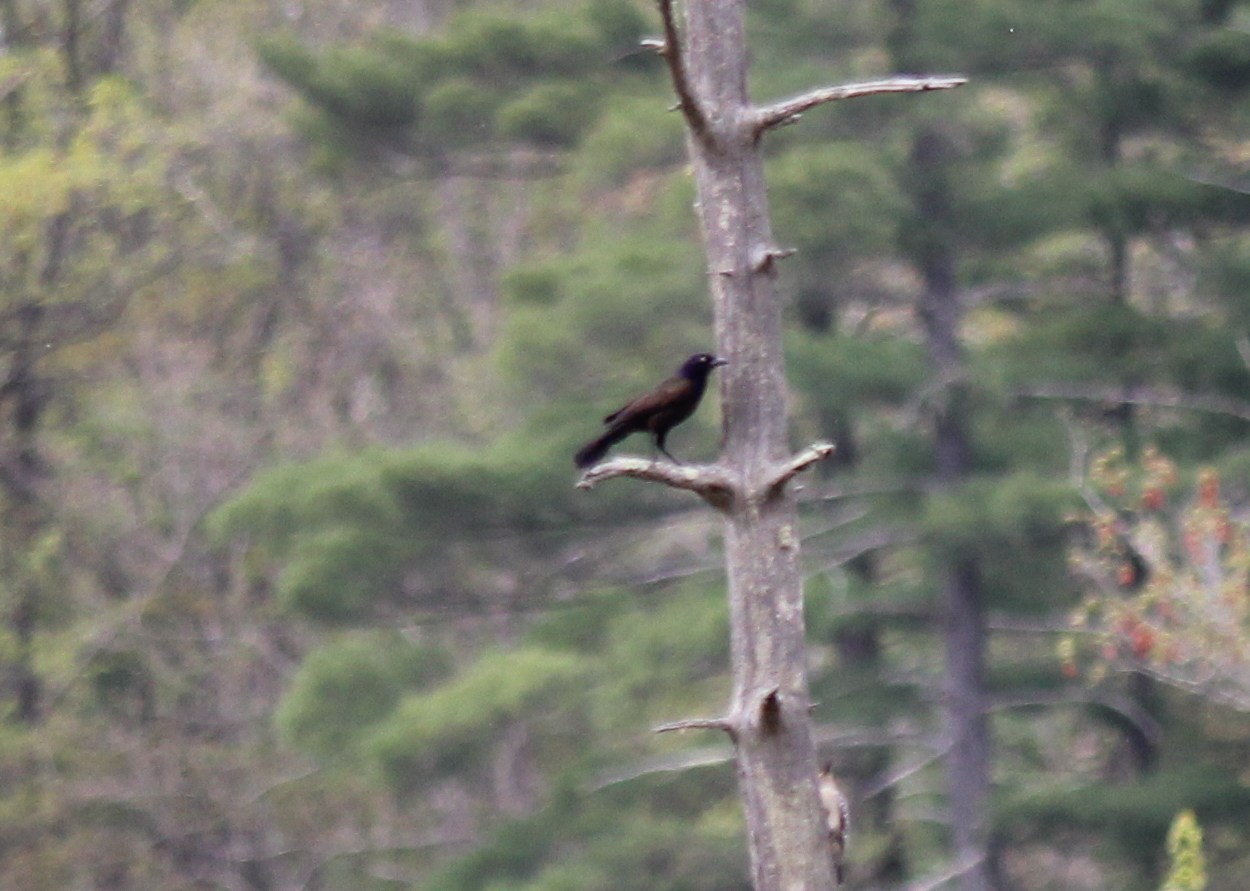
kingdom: Animalia
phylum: Chordata
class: Aves
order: Passeriformes
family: Icteridae
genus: Quiscalus
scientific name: Quiscalus quiscula
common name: Common grackle
